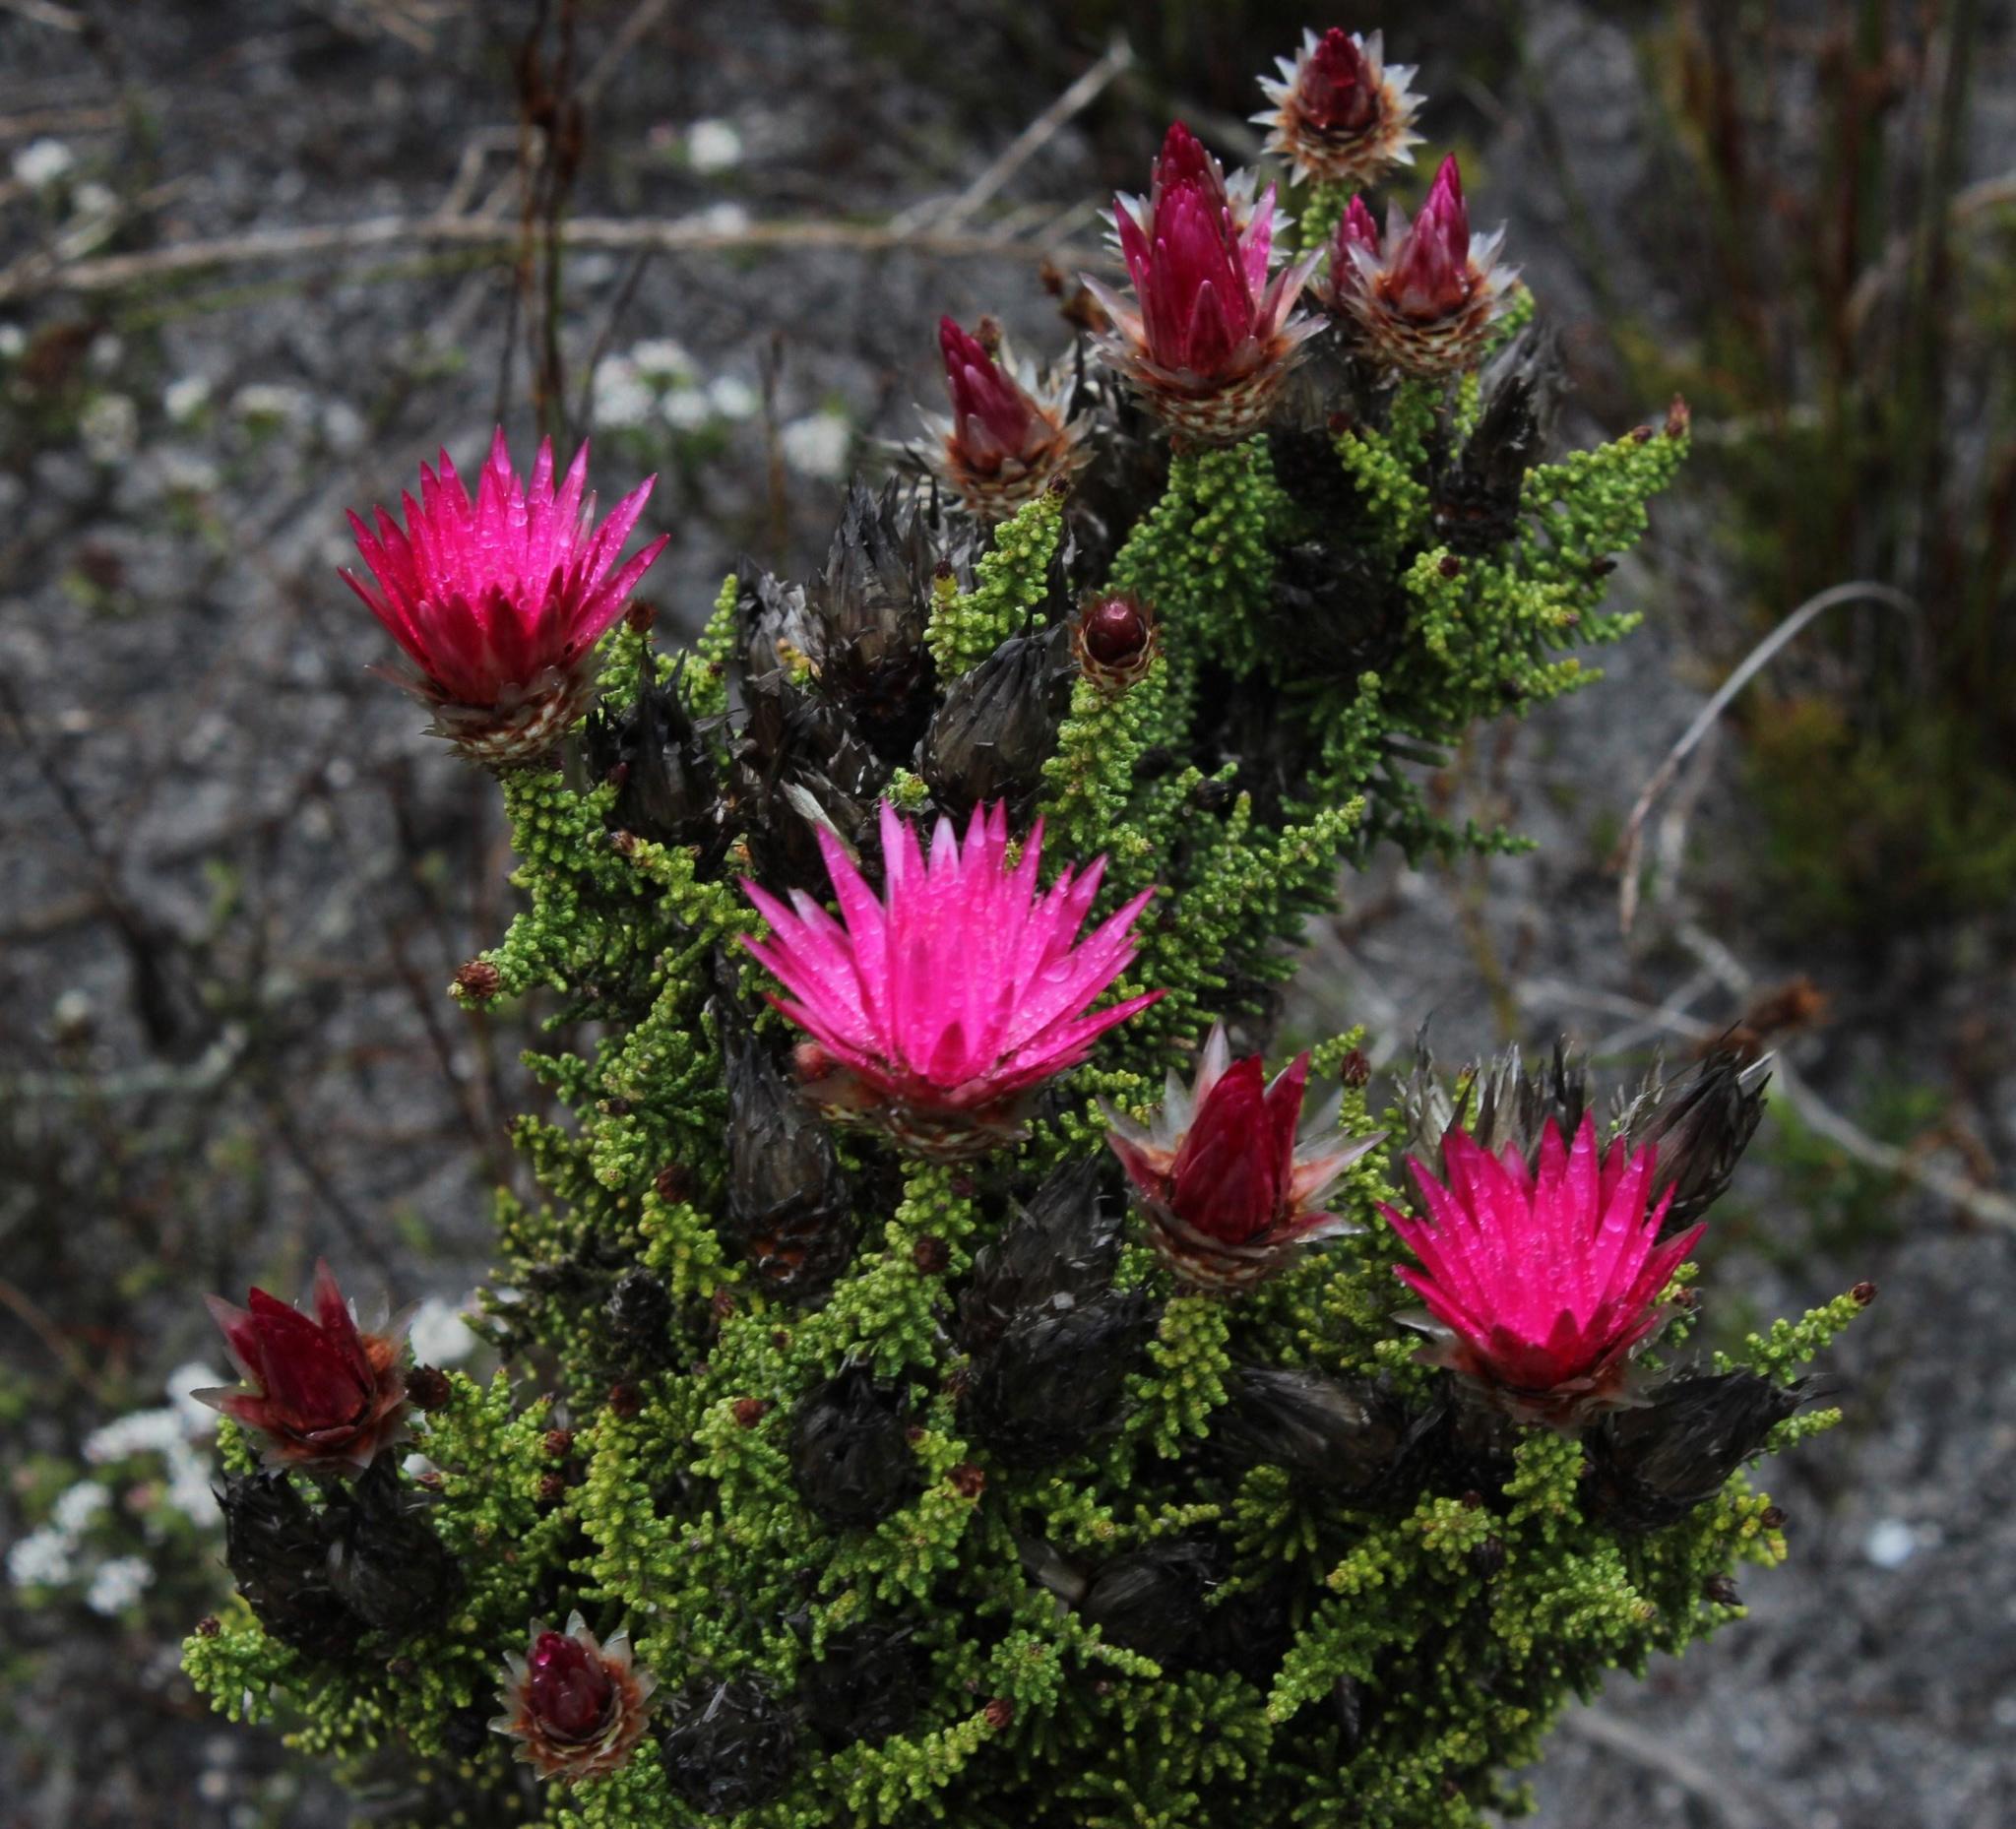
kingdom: Plantae
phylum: Tracheophyta
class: Magnoliopsida
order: Asterales
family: Asteraceae
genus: Phaenocoma
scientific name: Phaenocoma prolifera
